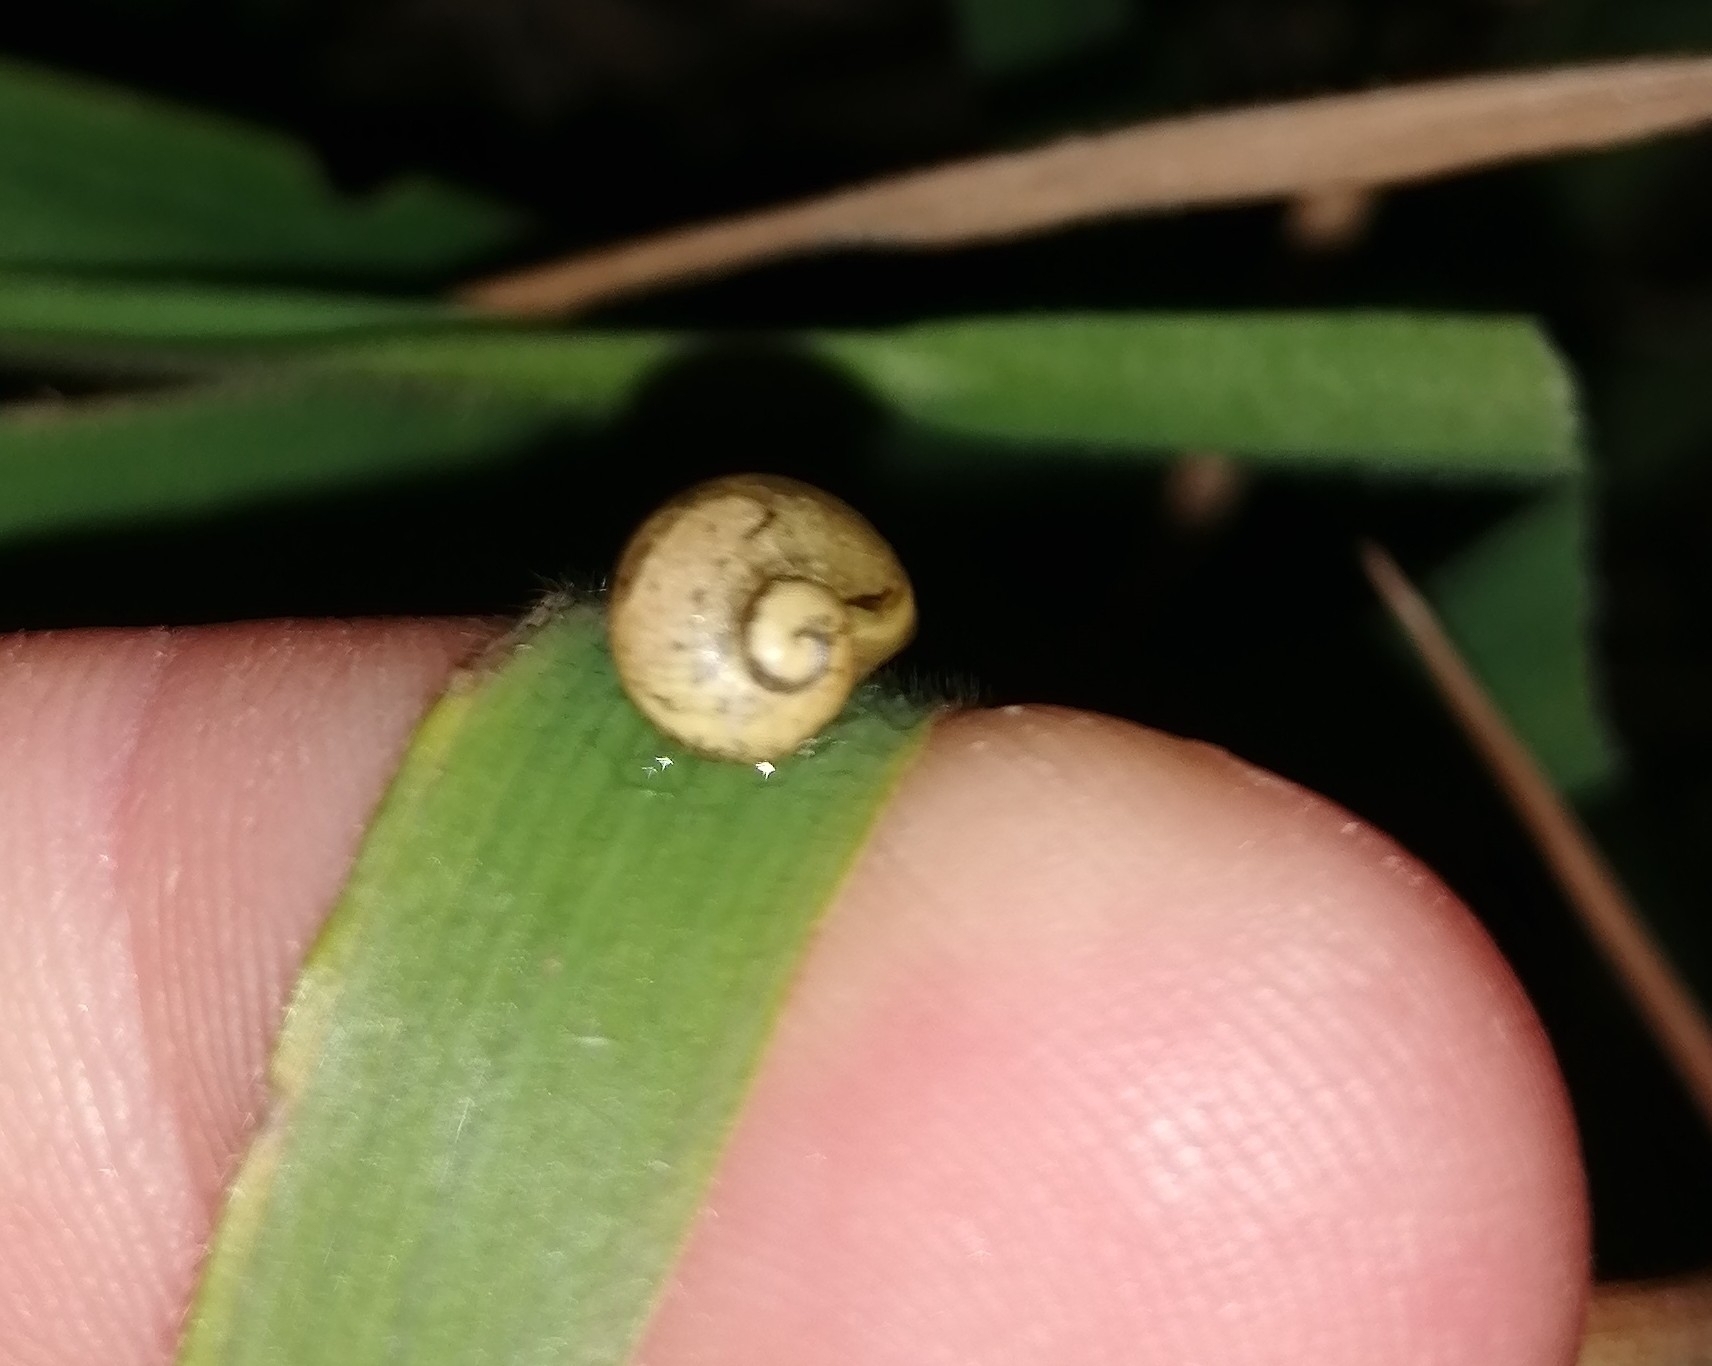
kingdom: Animalia
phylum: Mollusca
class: Gastropoda
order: Stylommatophora
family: Helicidae
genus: Cantareus
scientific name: Cantareus apertus
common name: Green gardensnail
